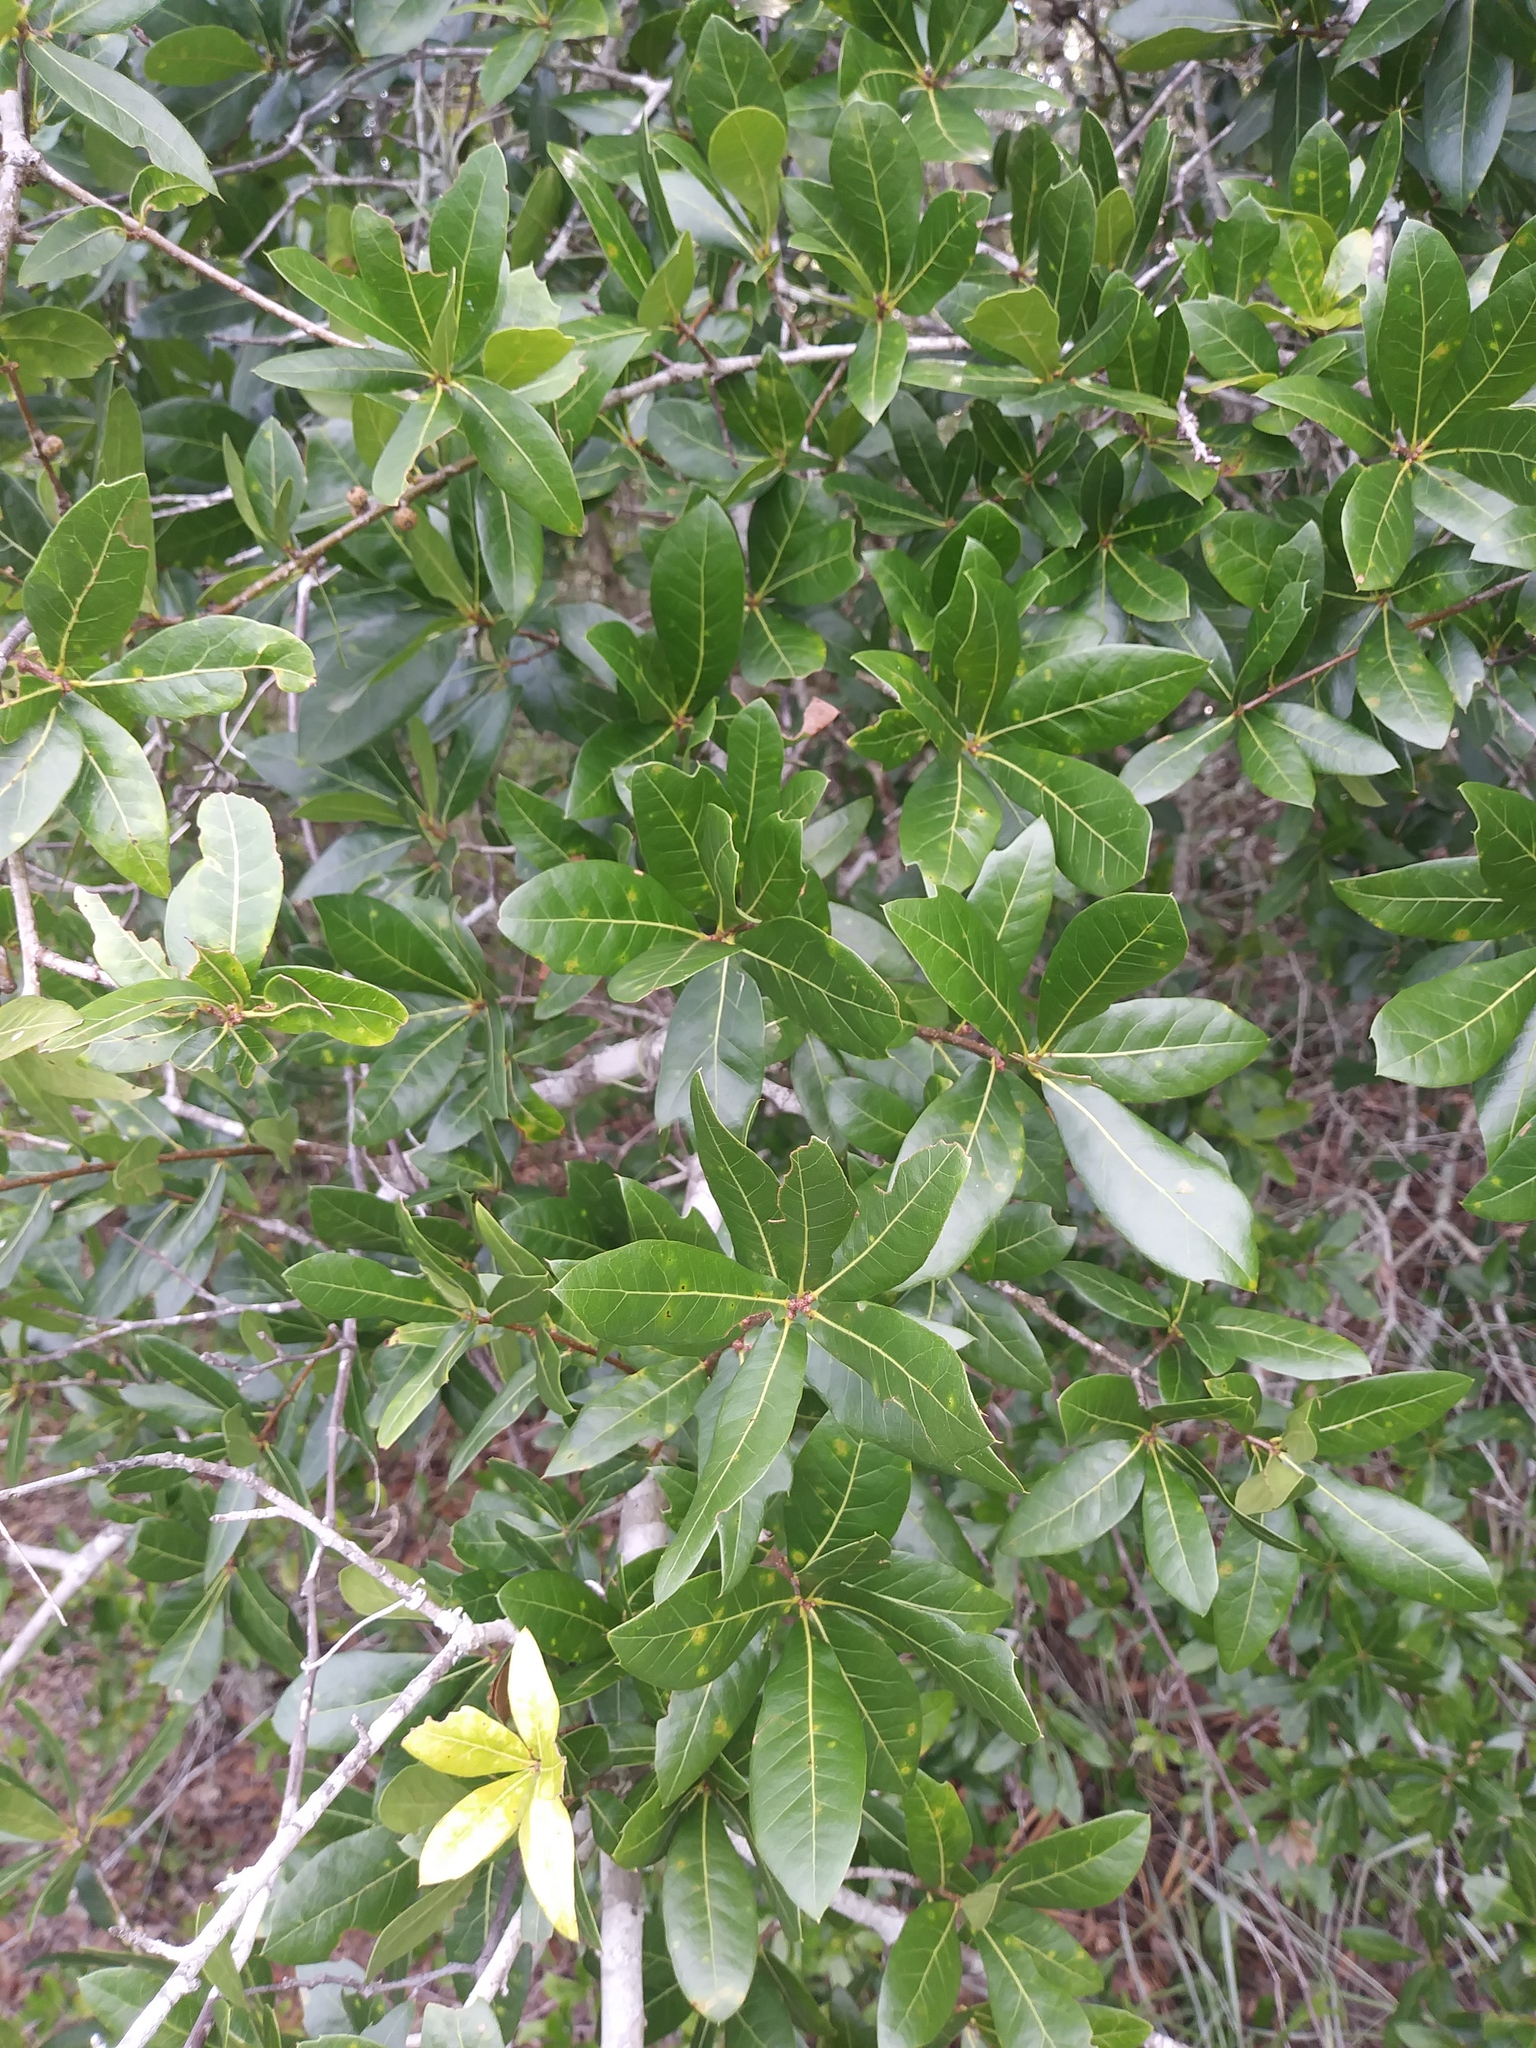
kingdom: Plantae
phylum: Tracheophyta
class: Magnoliopsida
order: Fagales
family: Fagaceae
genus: Quercus
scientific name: Quercus hemisphaerica
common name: Darlington oak
